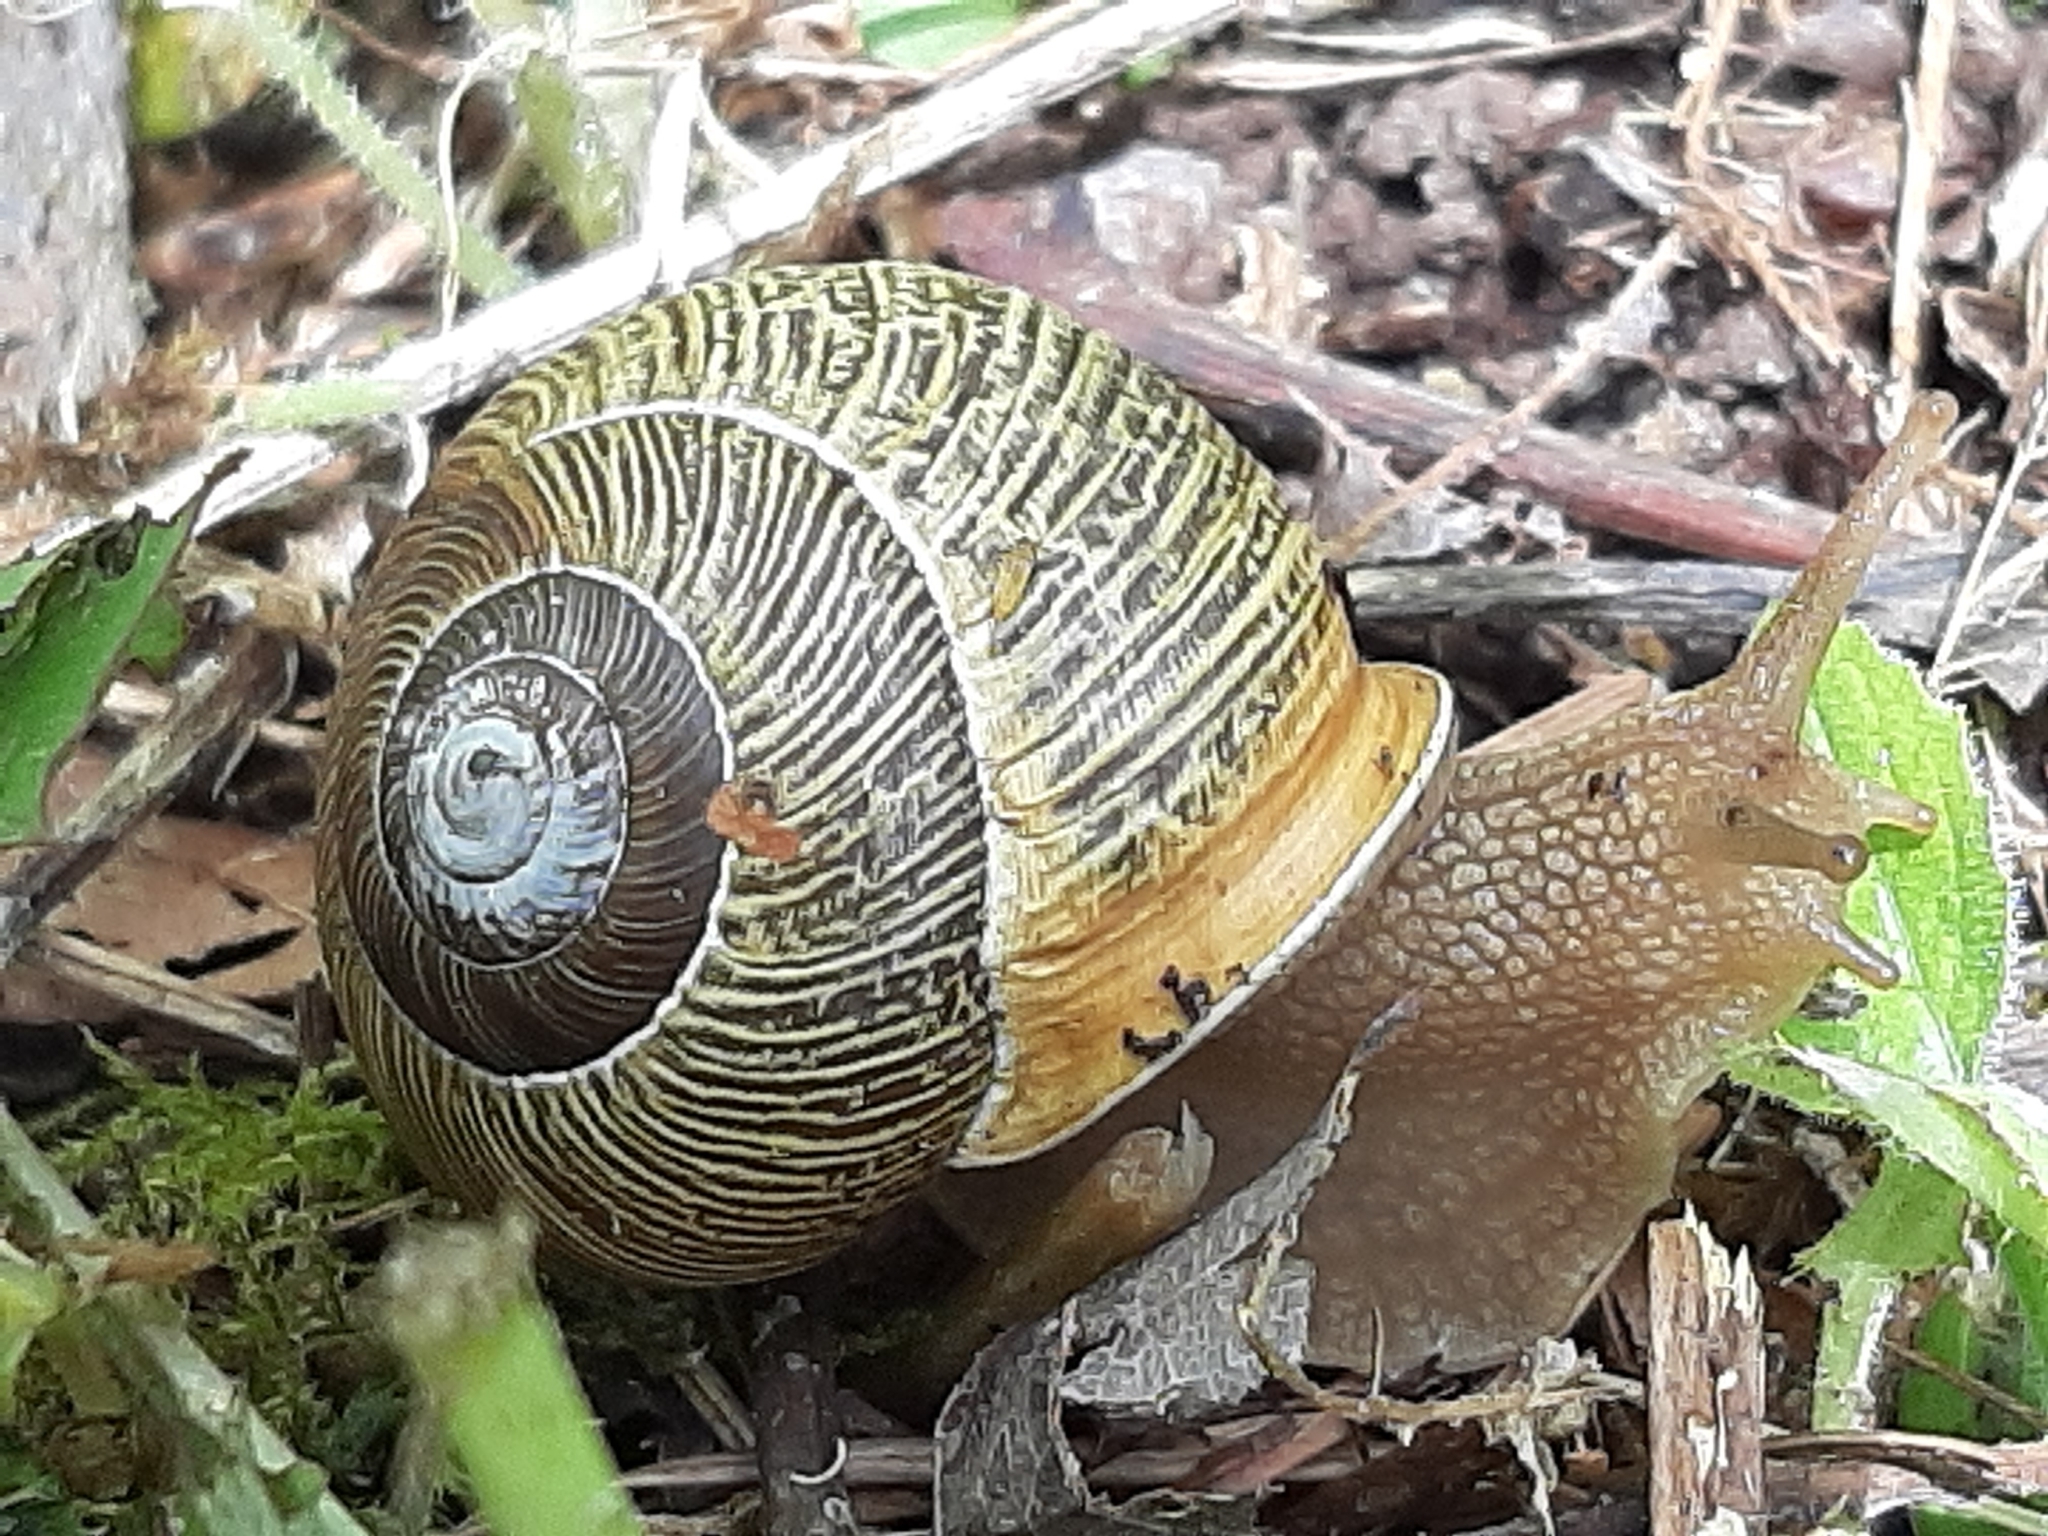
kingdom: Animalia
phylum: Mollusca
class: Gastropoda
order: Stylommatophora
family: Polygyridae
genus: Allogona
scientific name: Allogona townsendiana
